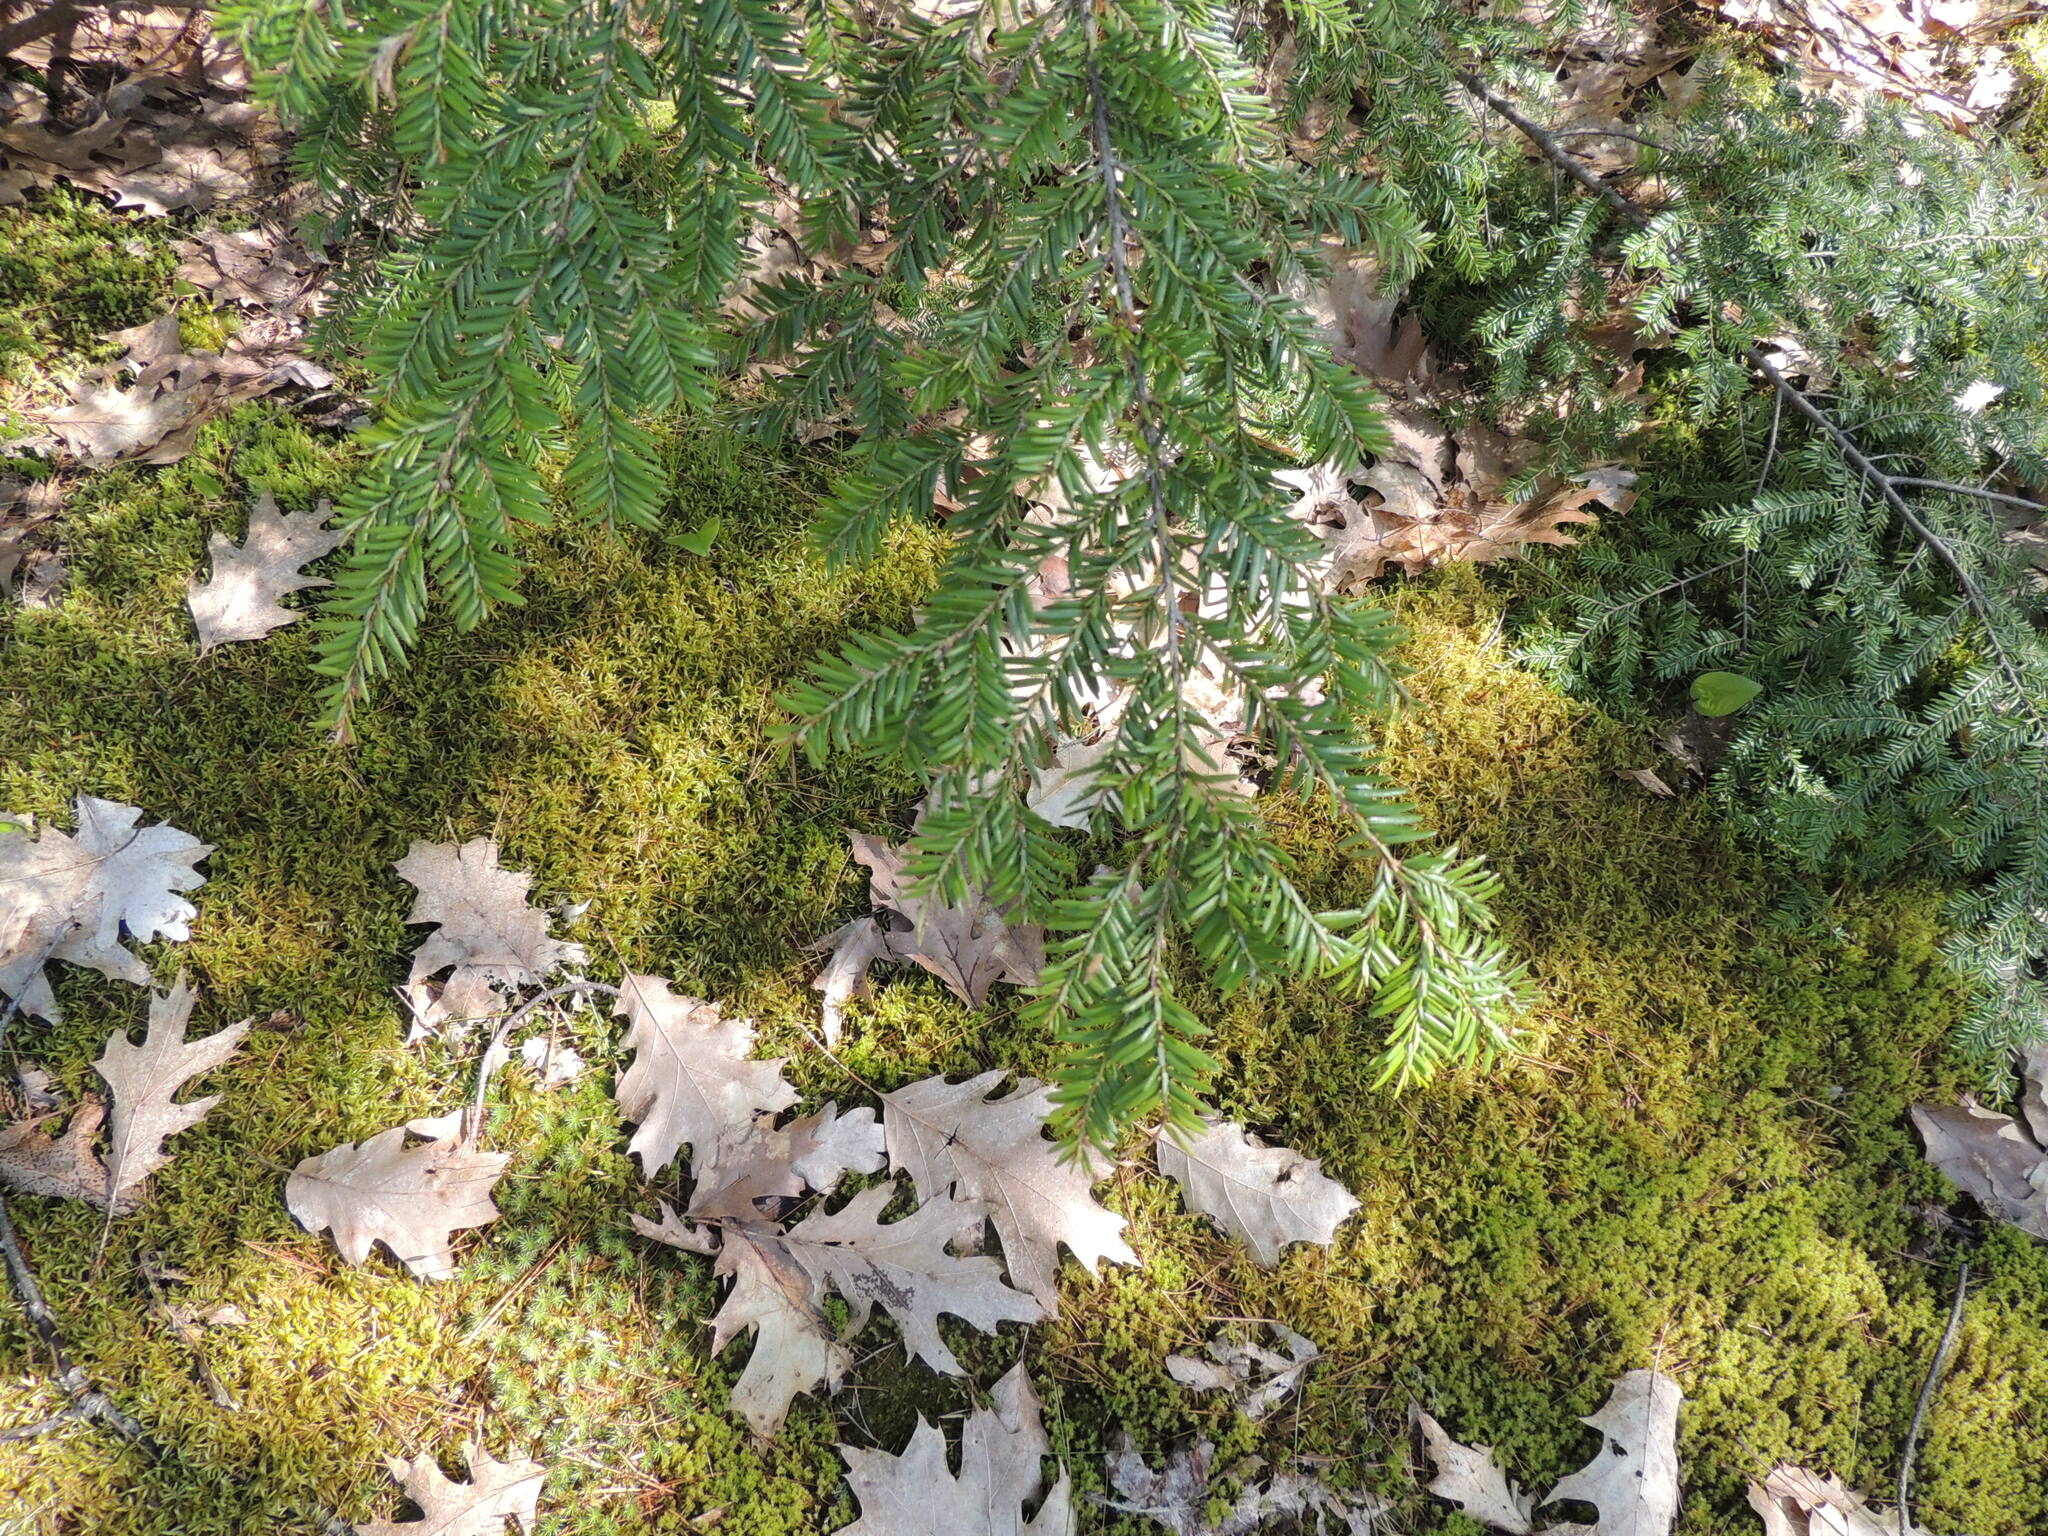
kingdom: Plantae
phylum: Tracheophyta
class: Pinopsida
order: Pinales
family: Pinaceae
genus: Tsuga
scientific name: Tsuga canadensis
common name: Eastern hemlock
